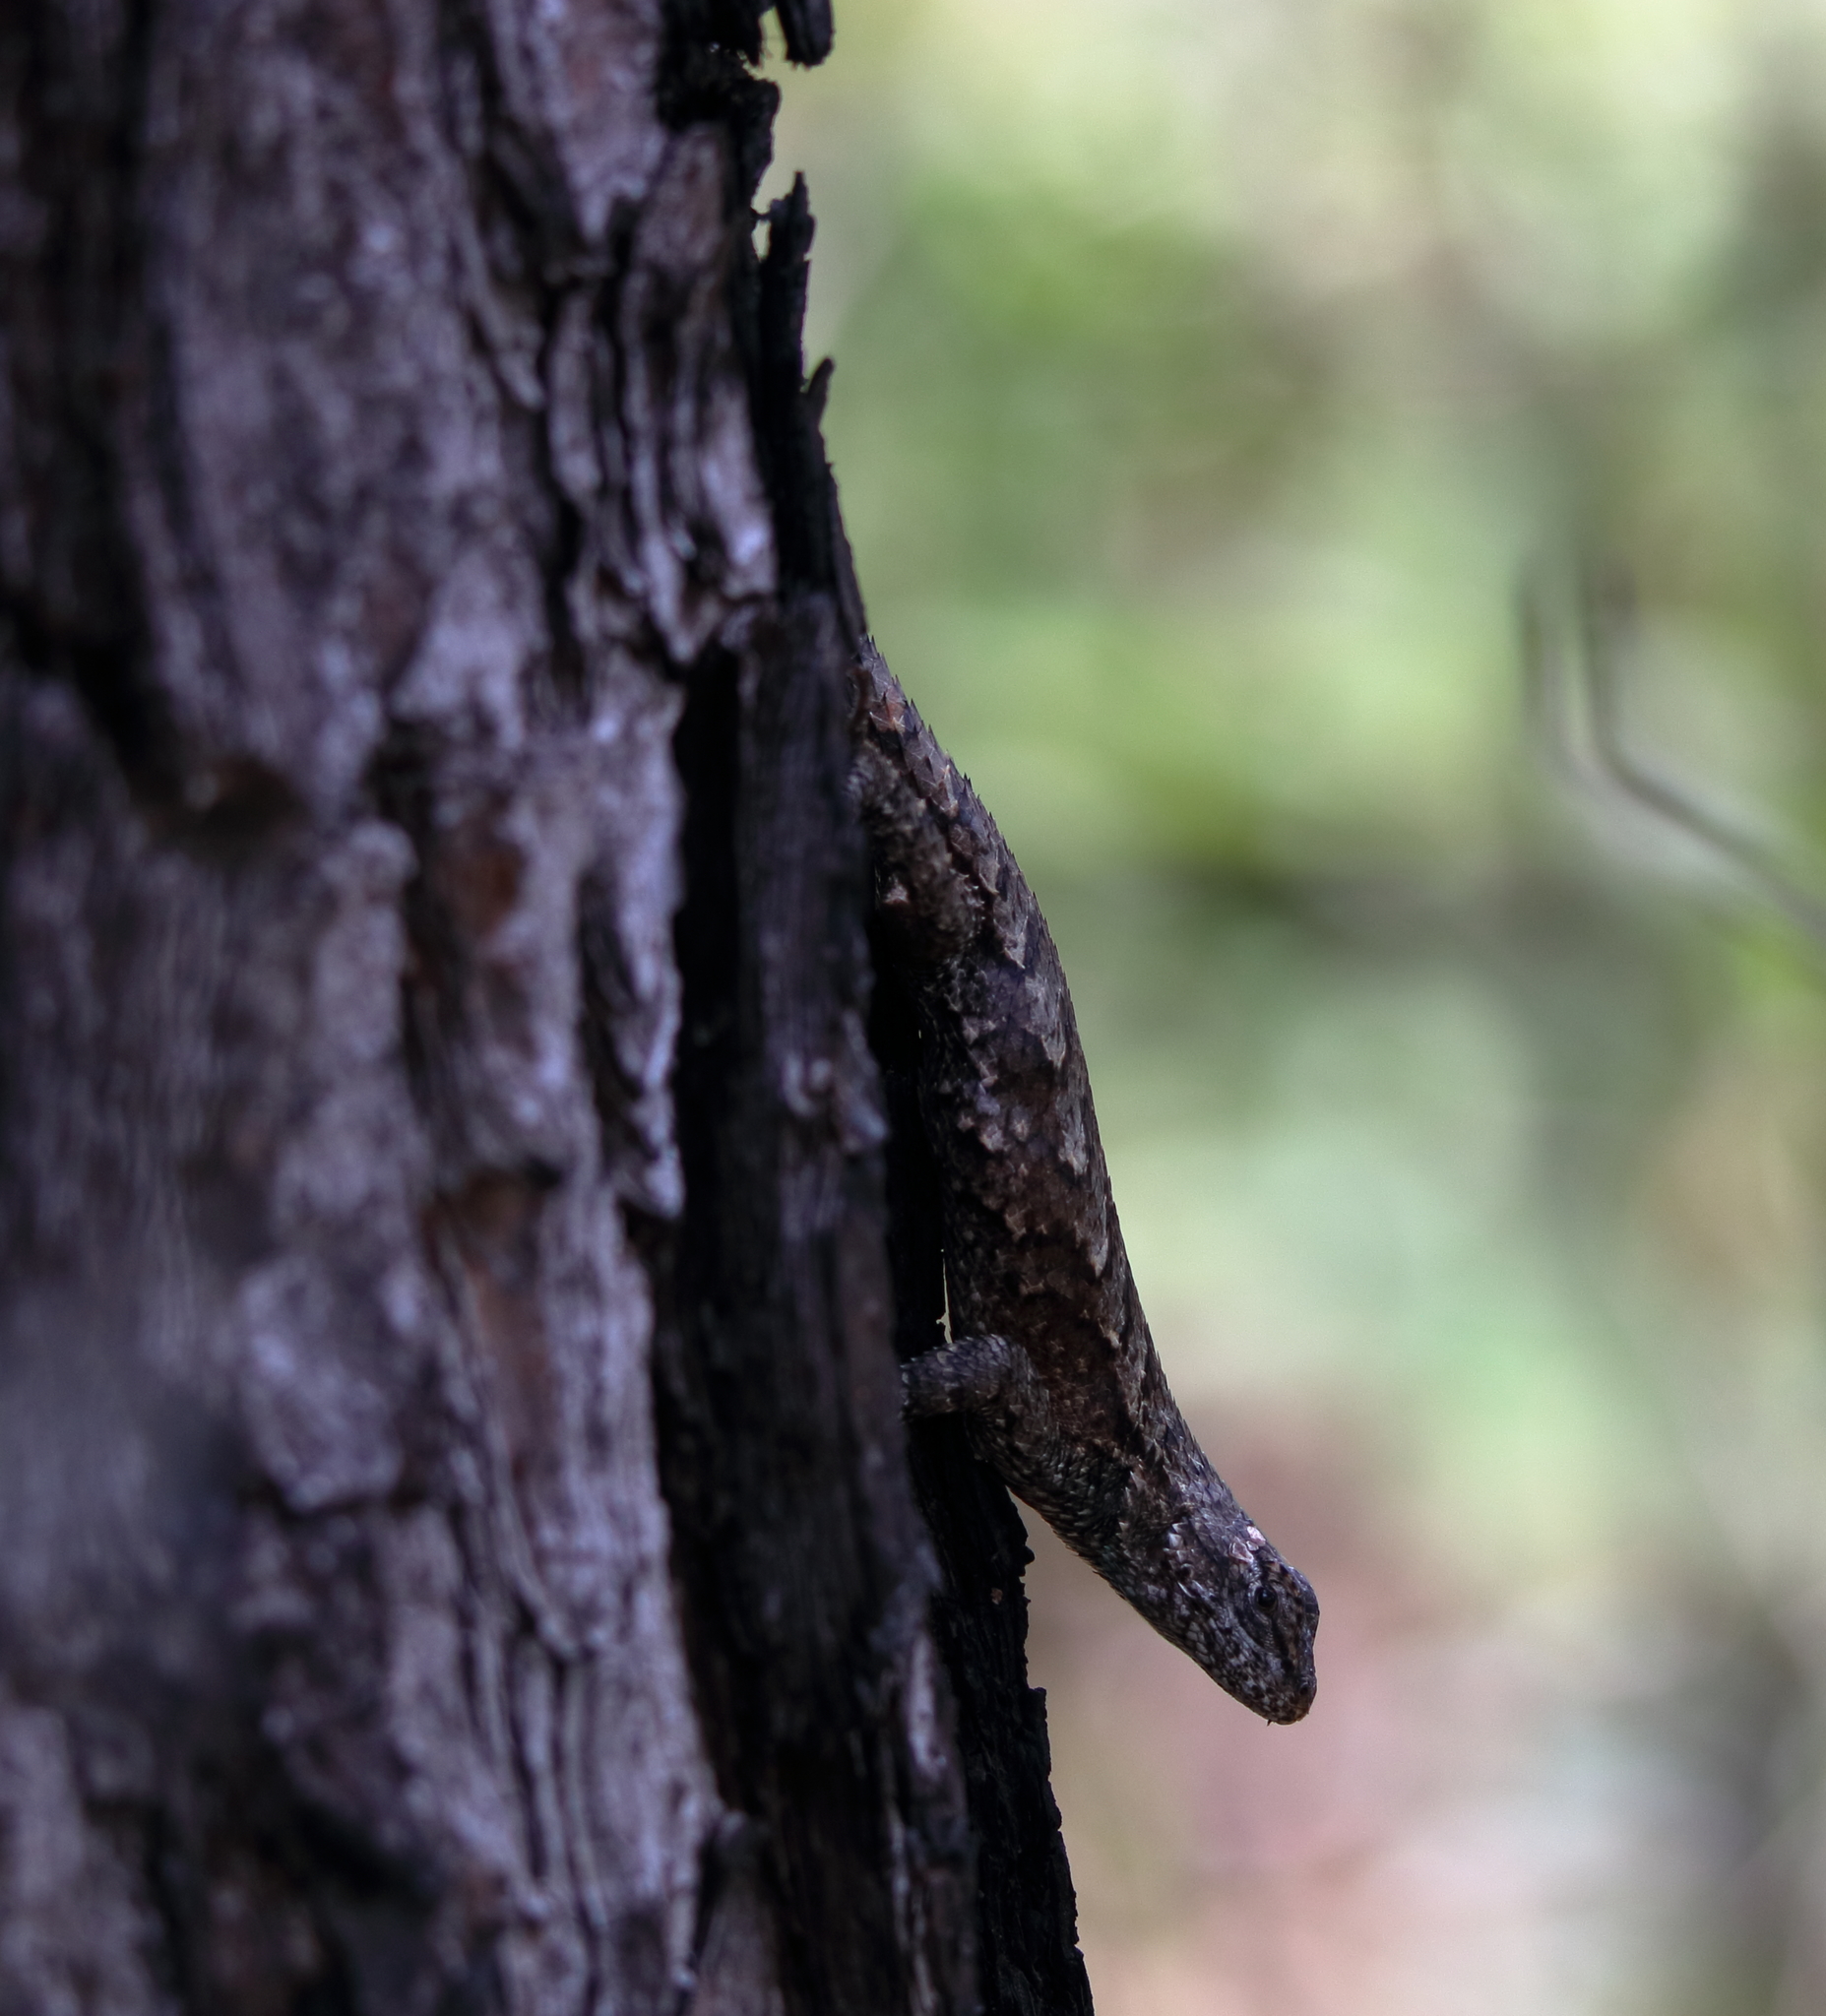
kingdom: Animalia
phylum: Chordata
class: Squamata
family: Phrynosomatidae
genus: Sceloporus
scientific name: Sceloporus consobrinus
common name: Southern prairie lizard
